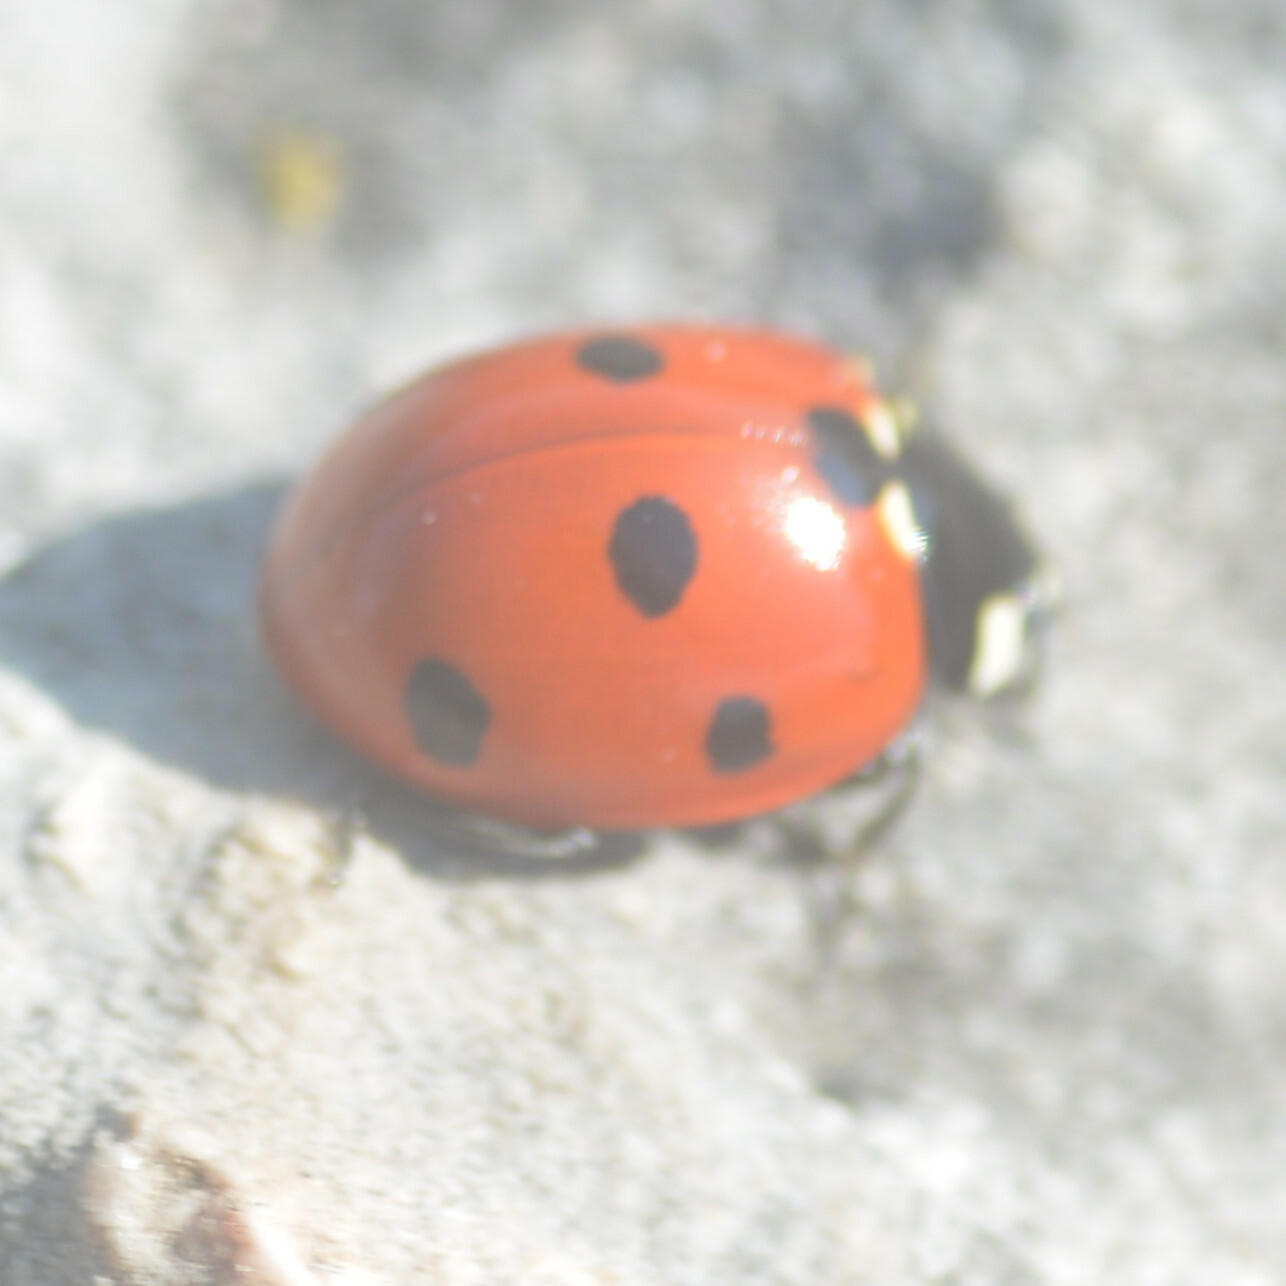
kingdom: Animalia
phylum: Arthropoda
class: Insecta
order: Coleoptera
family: Coccinellidae
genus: Coccinella
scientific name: Coccinella septempunctata
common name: Sevenspotted lady beetle
